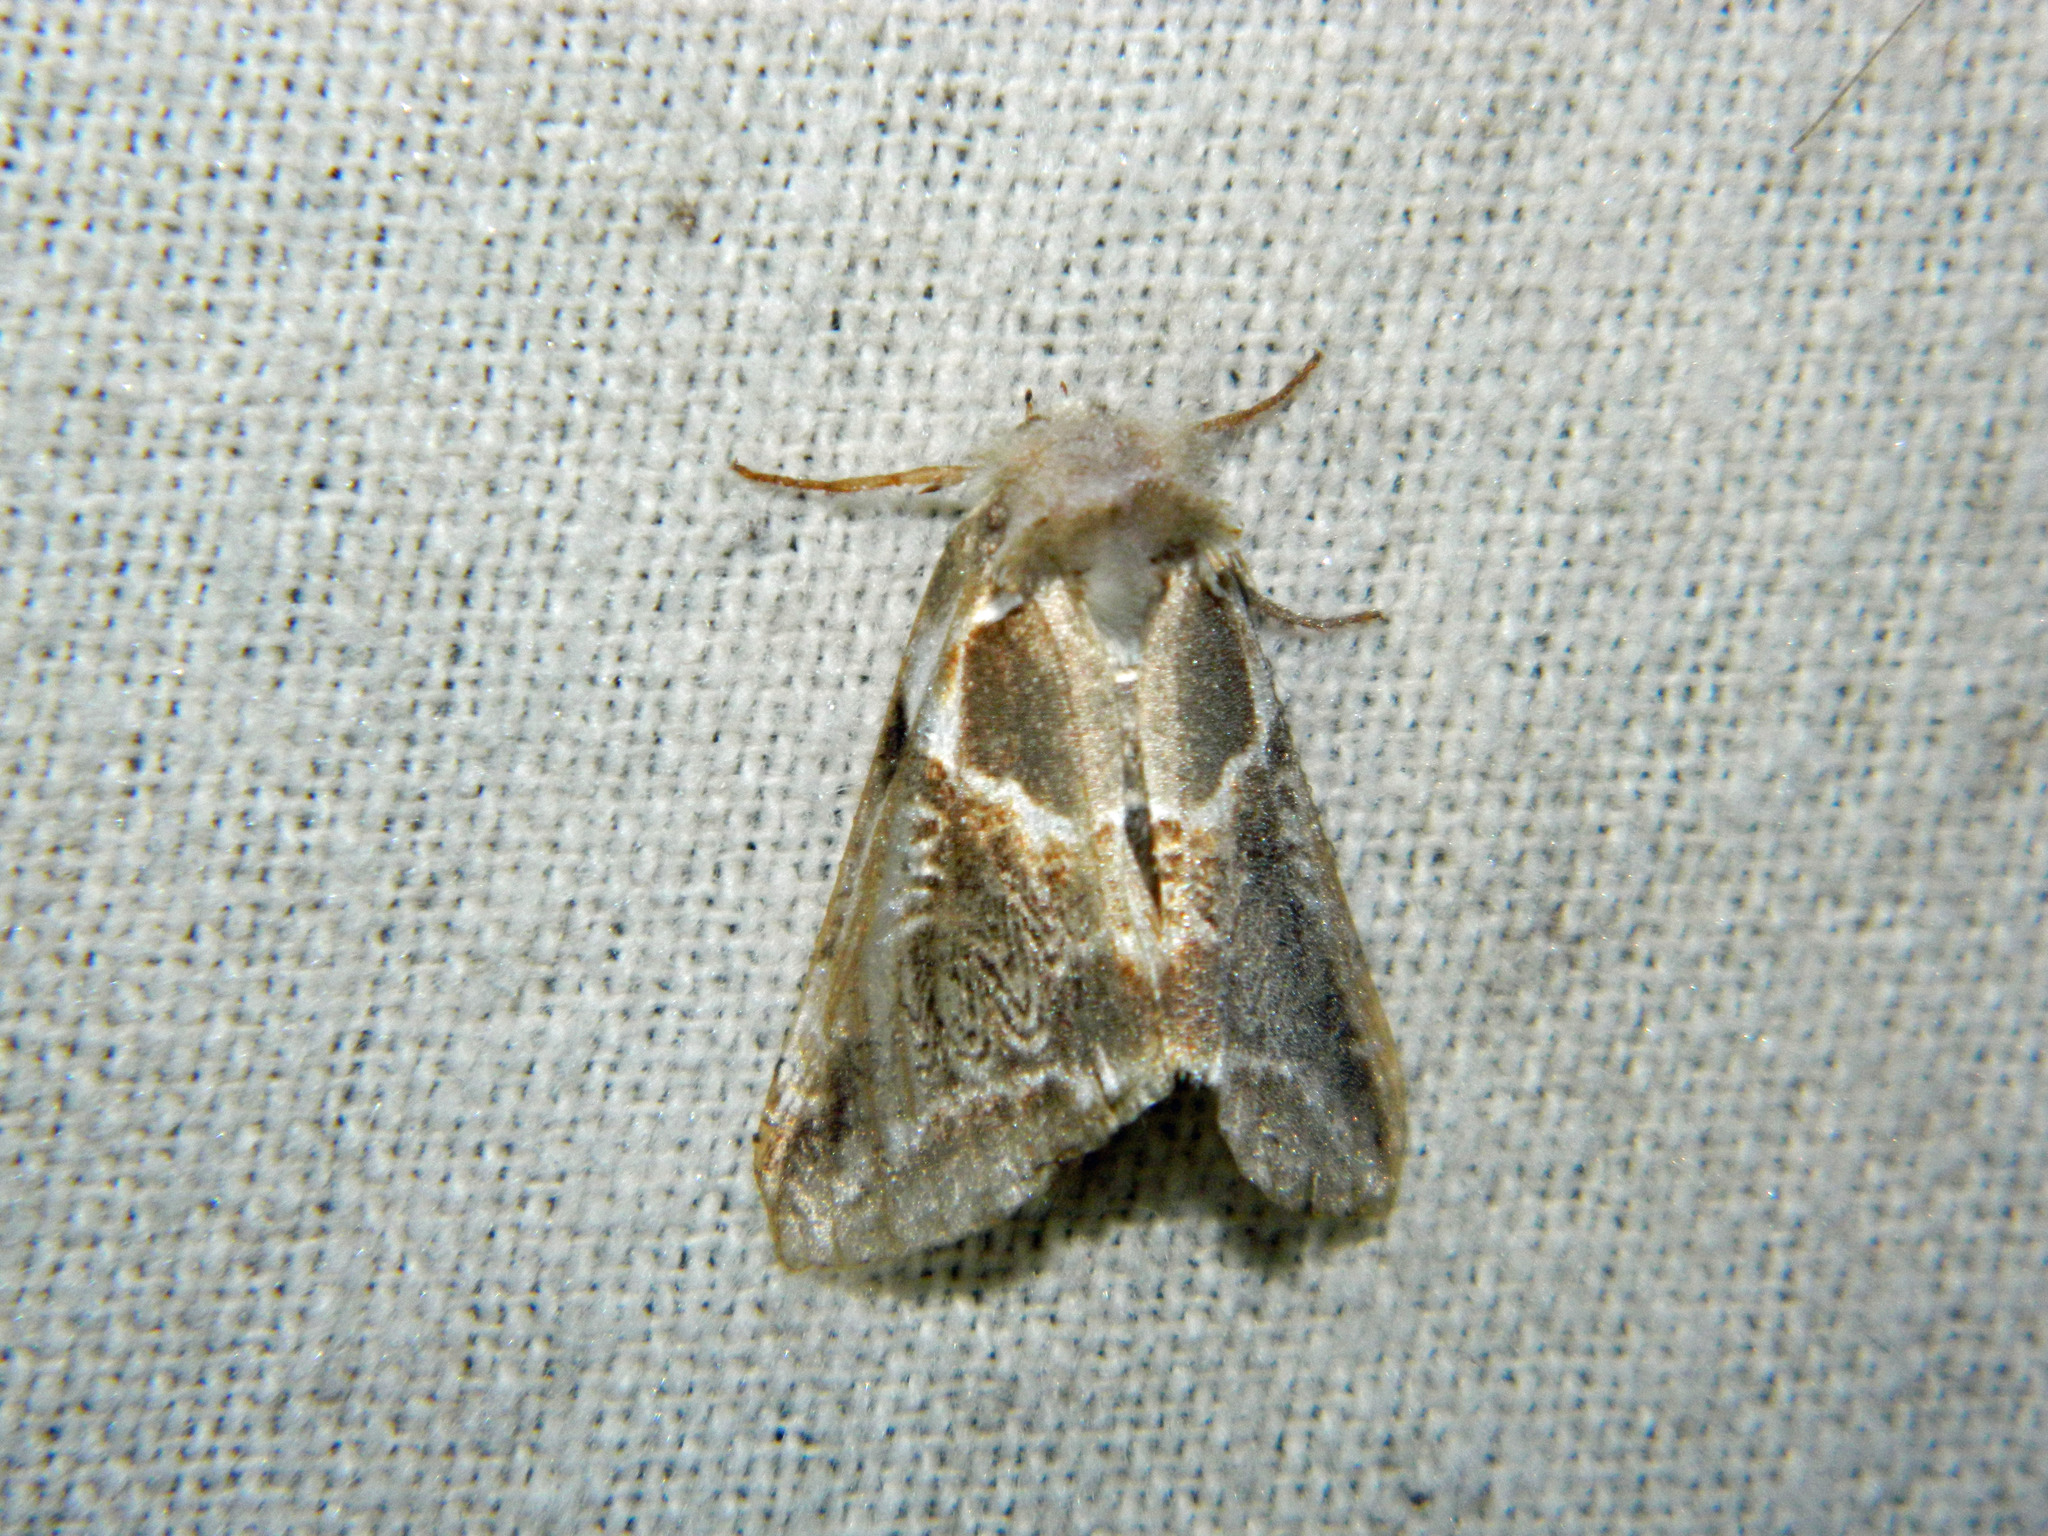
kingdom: Animalia
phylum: Arthropoda
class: Insecta
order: Lepidoptera
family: Drepanidae
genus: Habrosyne
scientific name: Habrosyne scripta
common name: Lettered habrosyne moth
